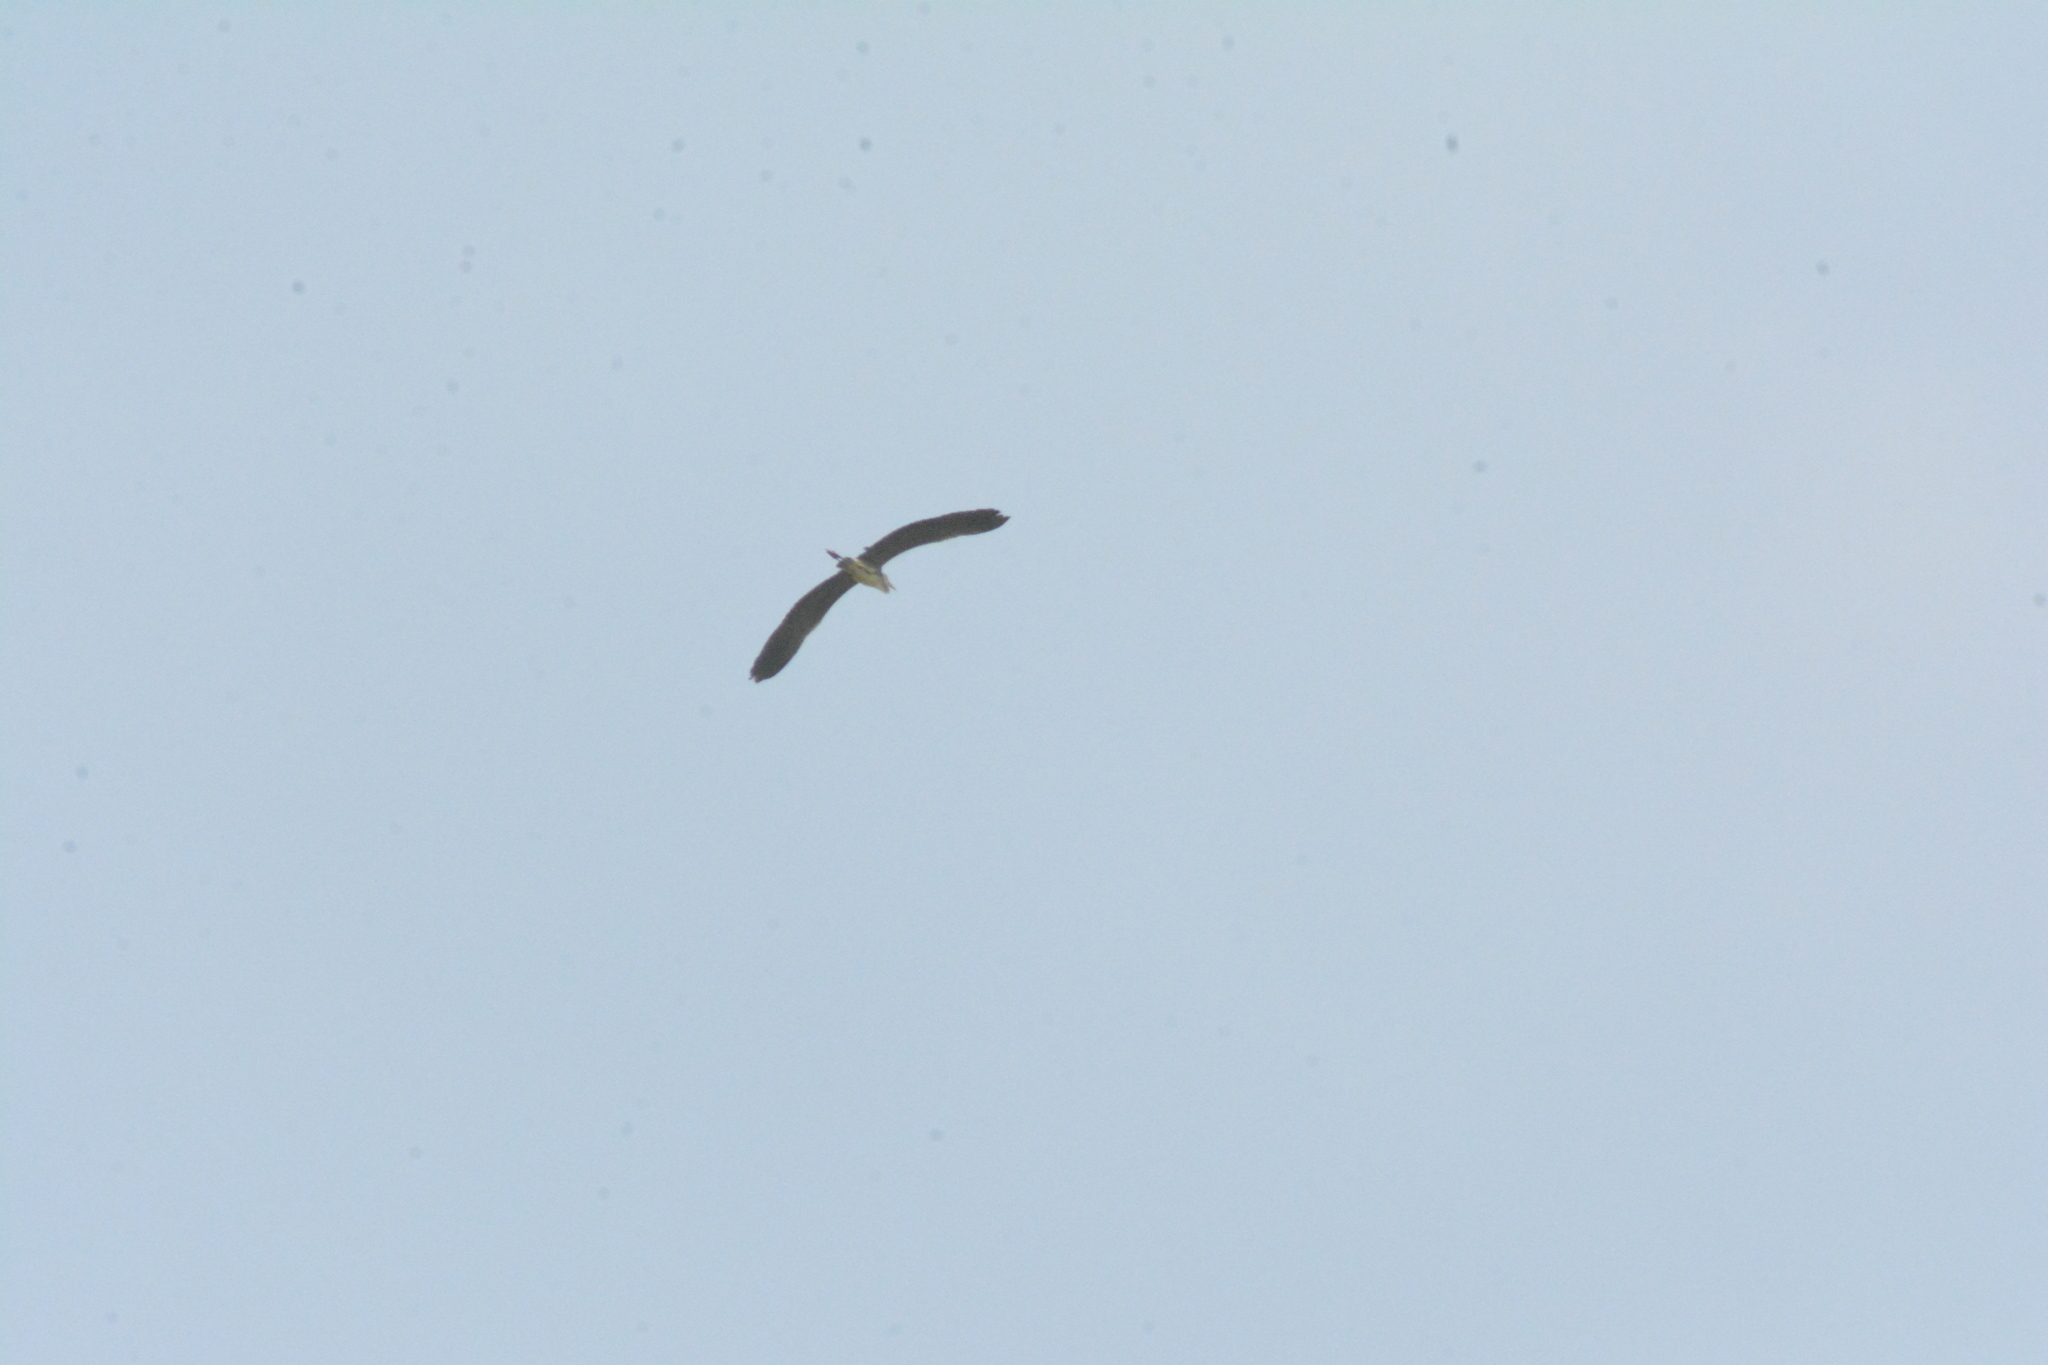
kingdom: Animalia
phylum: Chordata
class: Aves
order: Pelecaniformes
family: Ardeidae
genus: Ardea
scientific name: Ardea cinerea
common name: Grey heron
